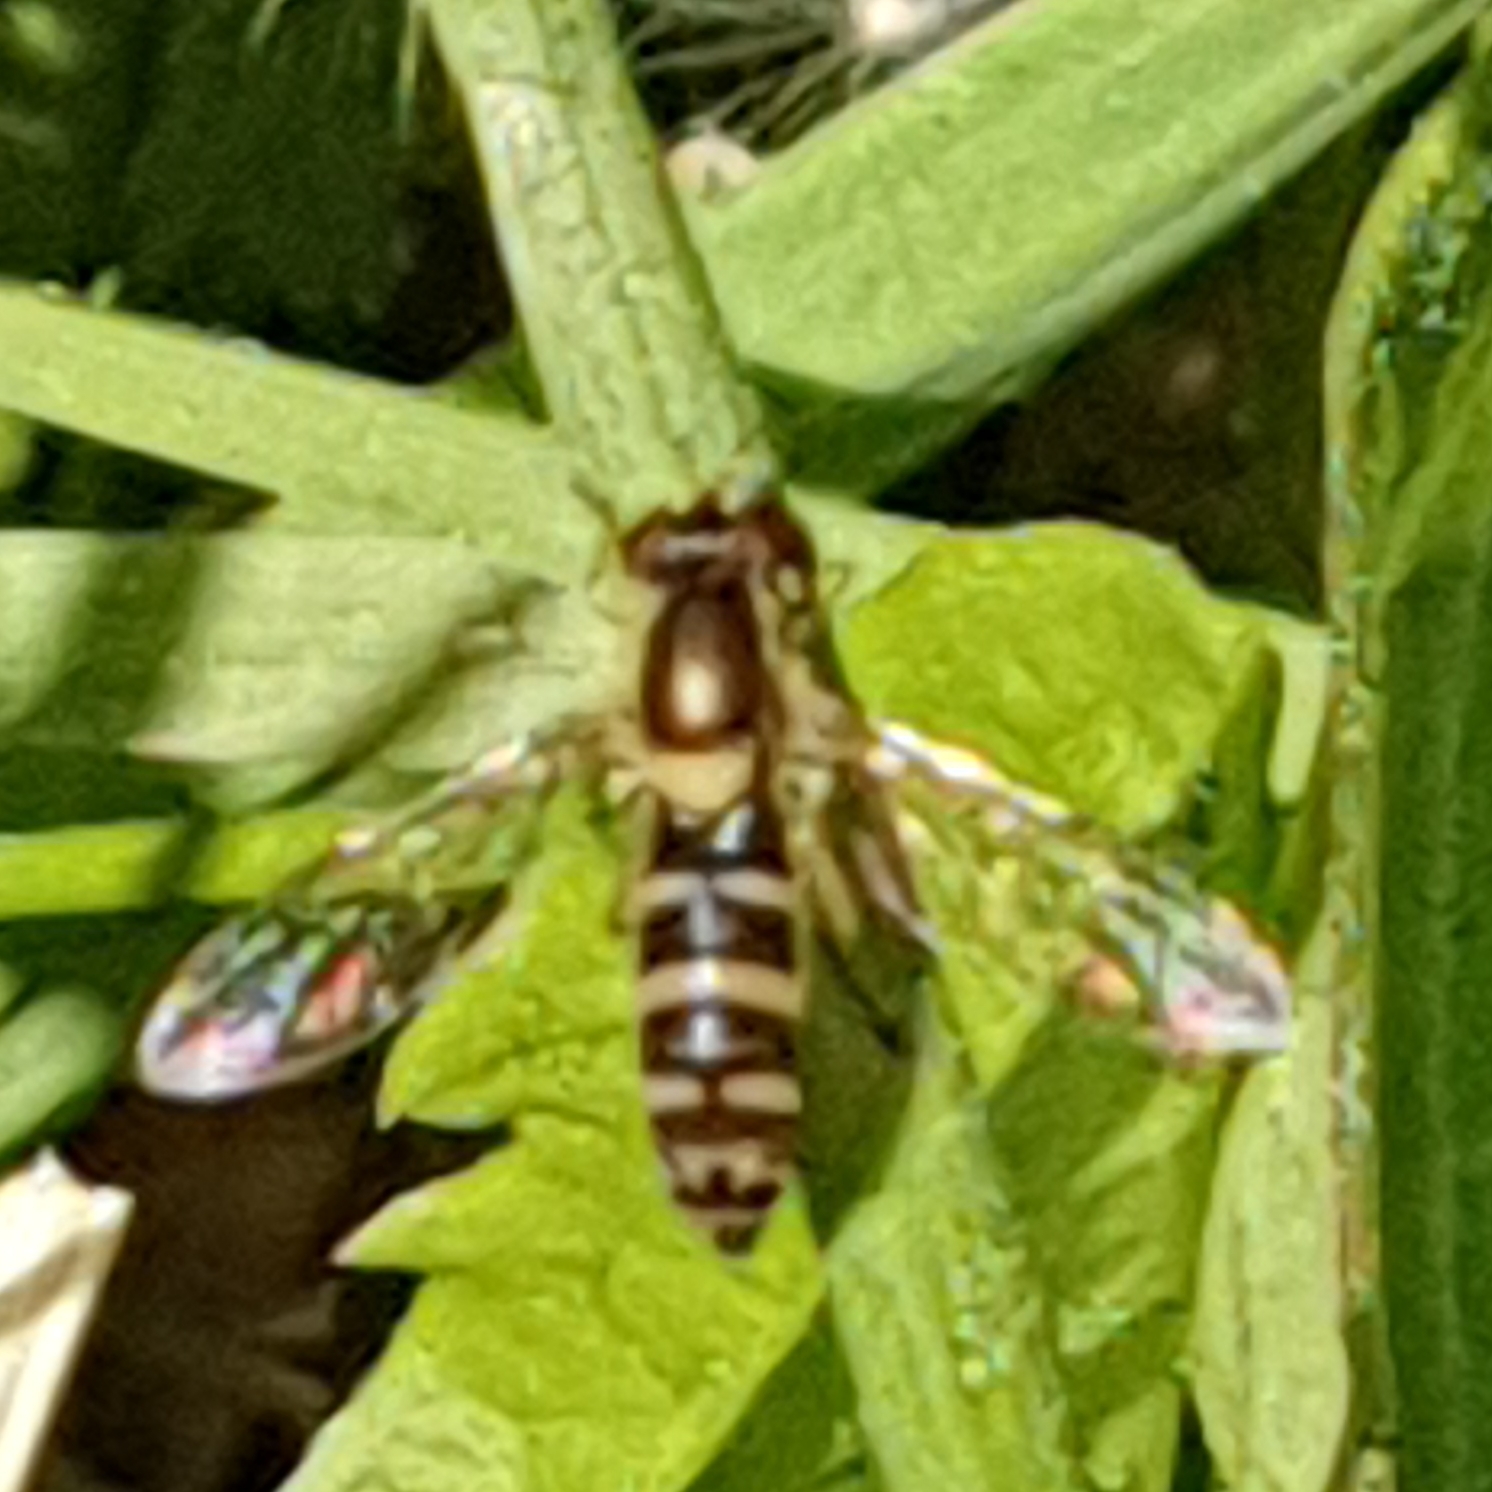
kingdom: Animalia
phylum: Arthropoda
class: Insecta
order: Diptera
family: Syrphidae
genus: Sphaerophoria
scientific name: Sphaerophoria
